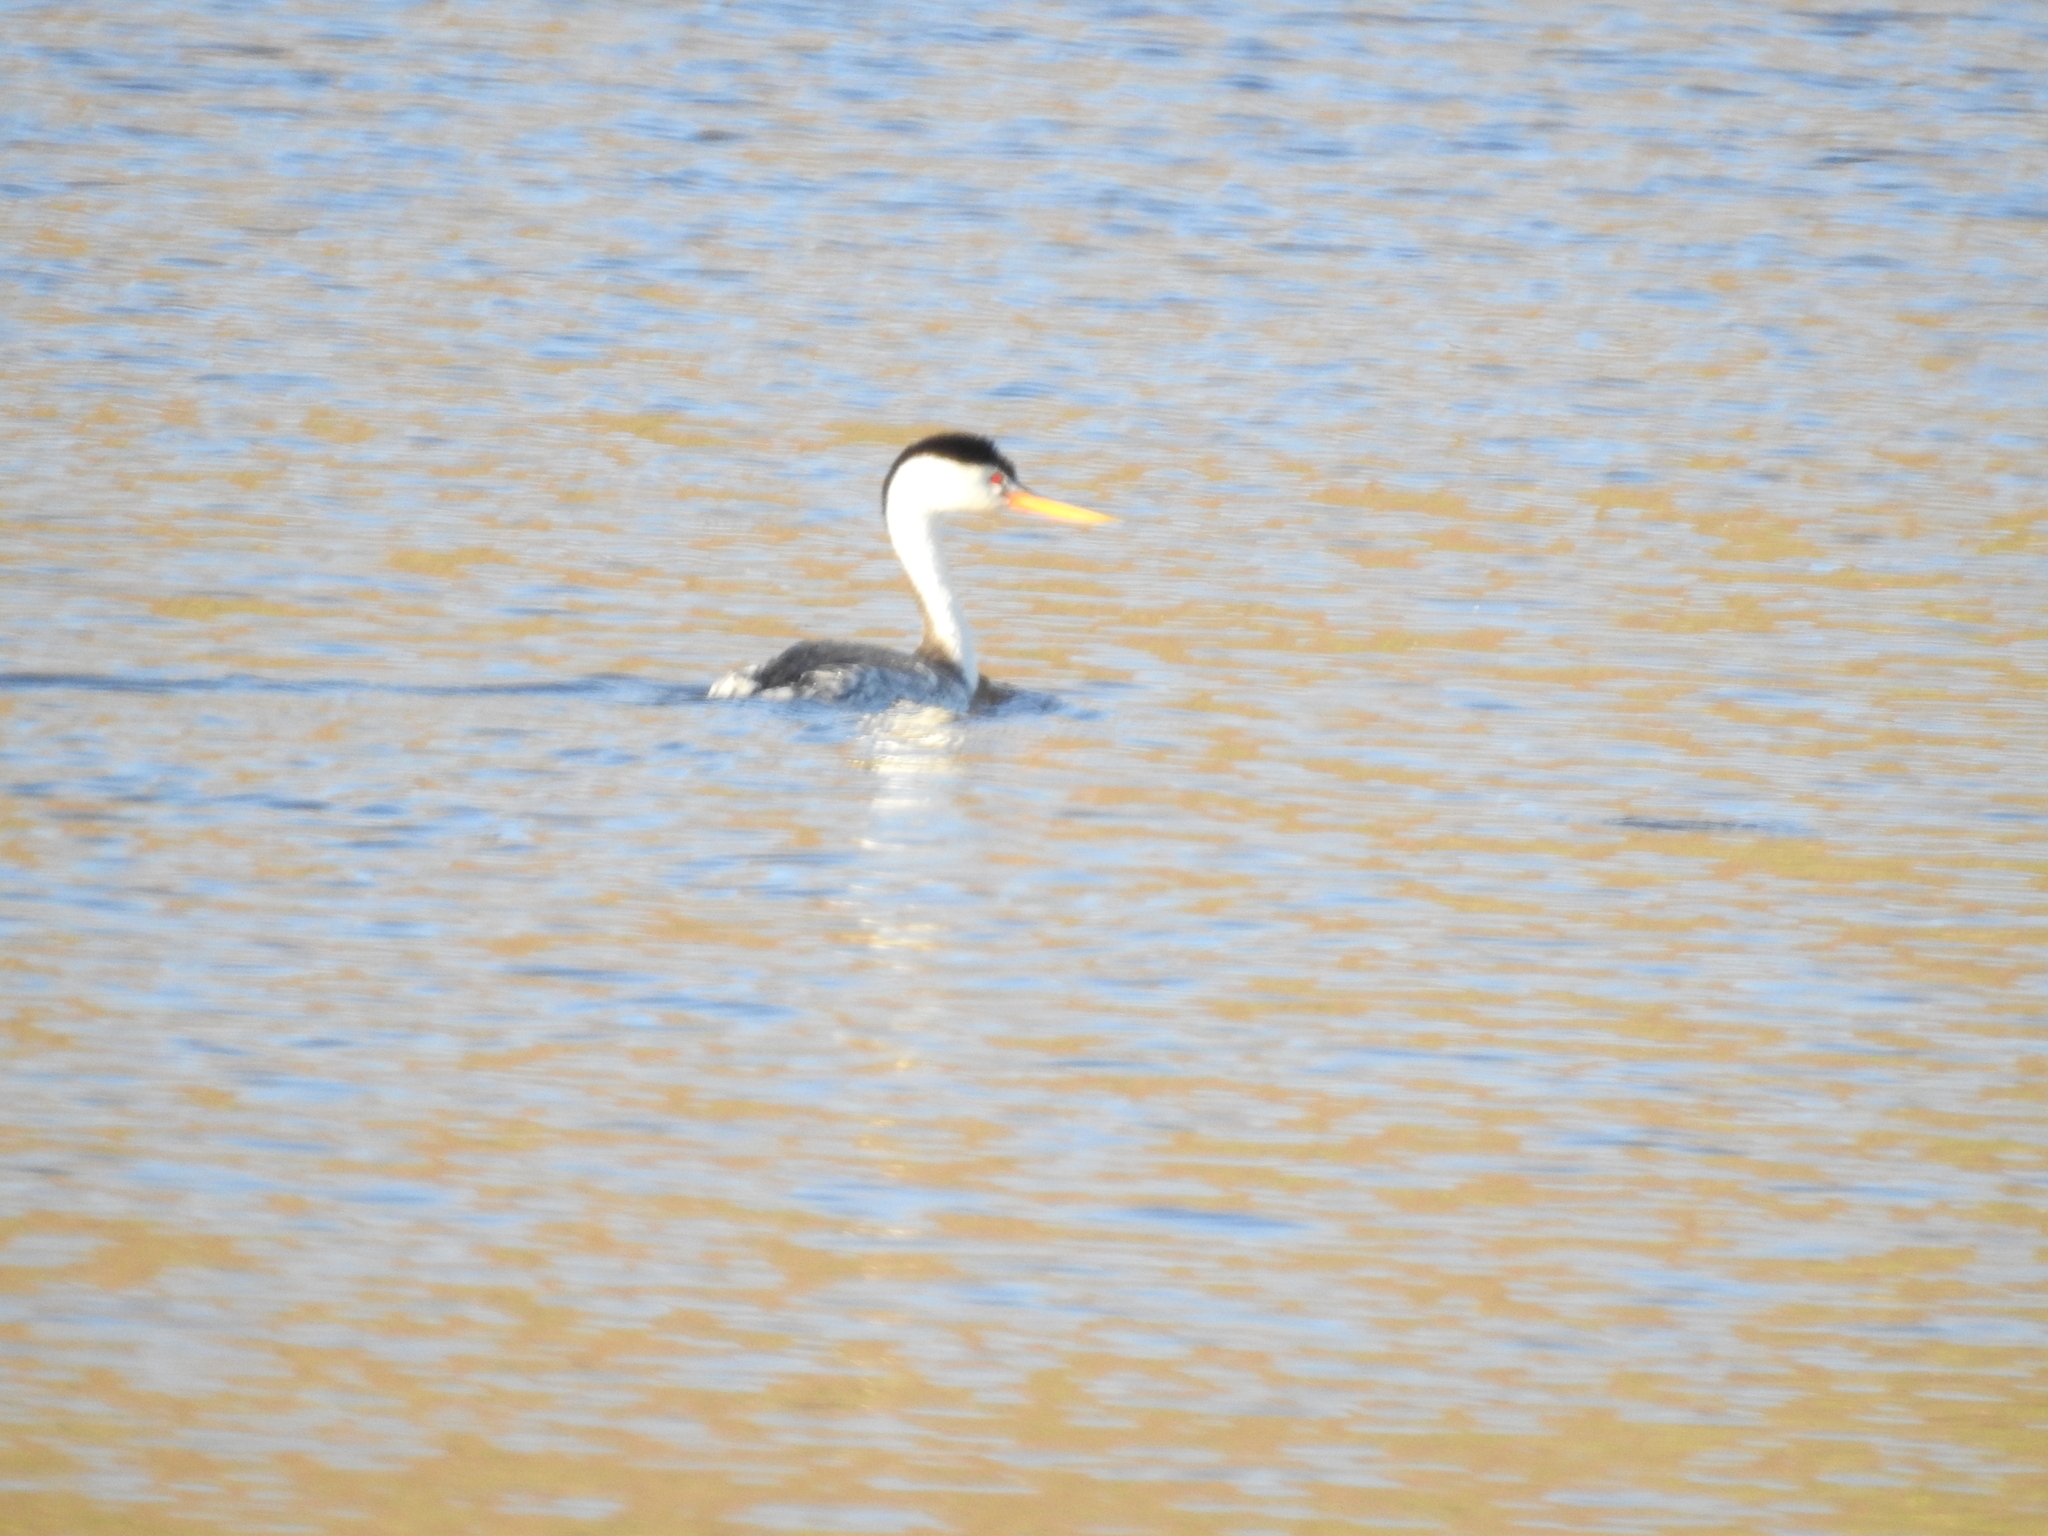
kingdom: Animalia
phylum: Chordata
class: Aves
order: Podicipediformes
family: Podicipedidae
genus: Aechmophorus
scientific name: Aechmophorus clarkii
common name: Clark's grebe
